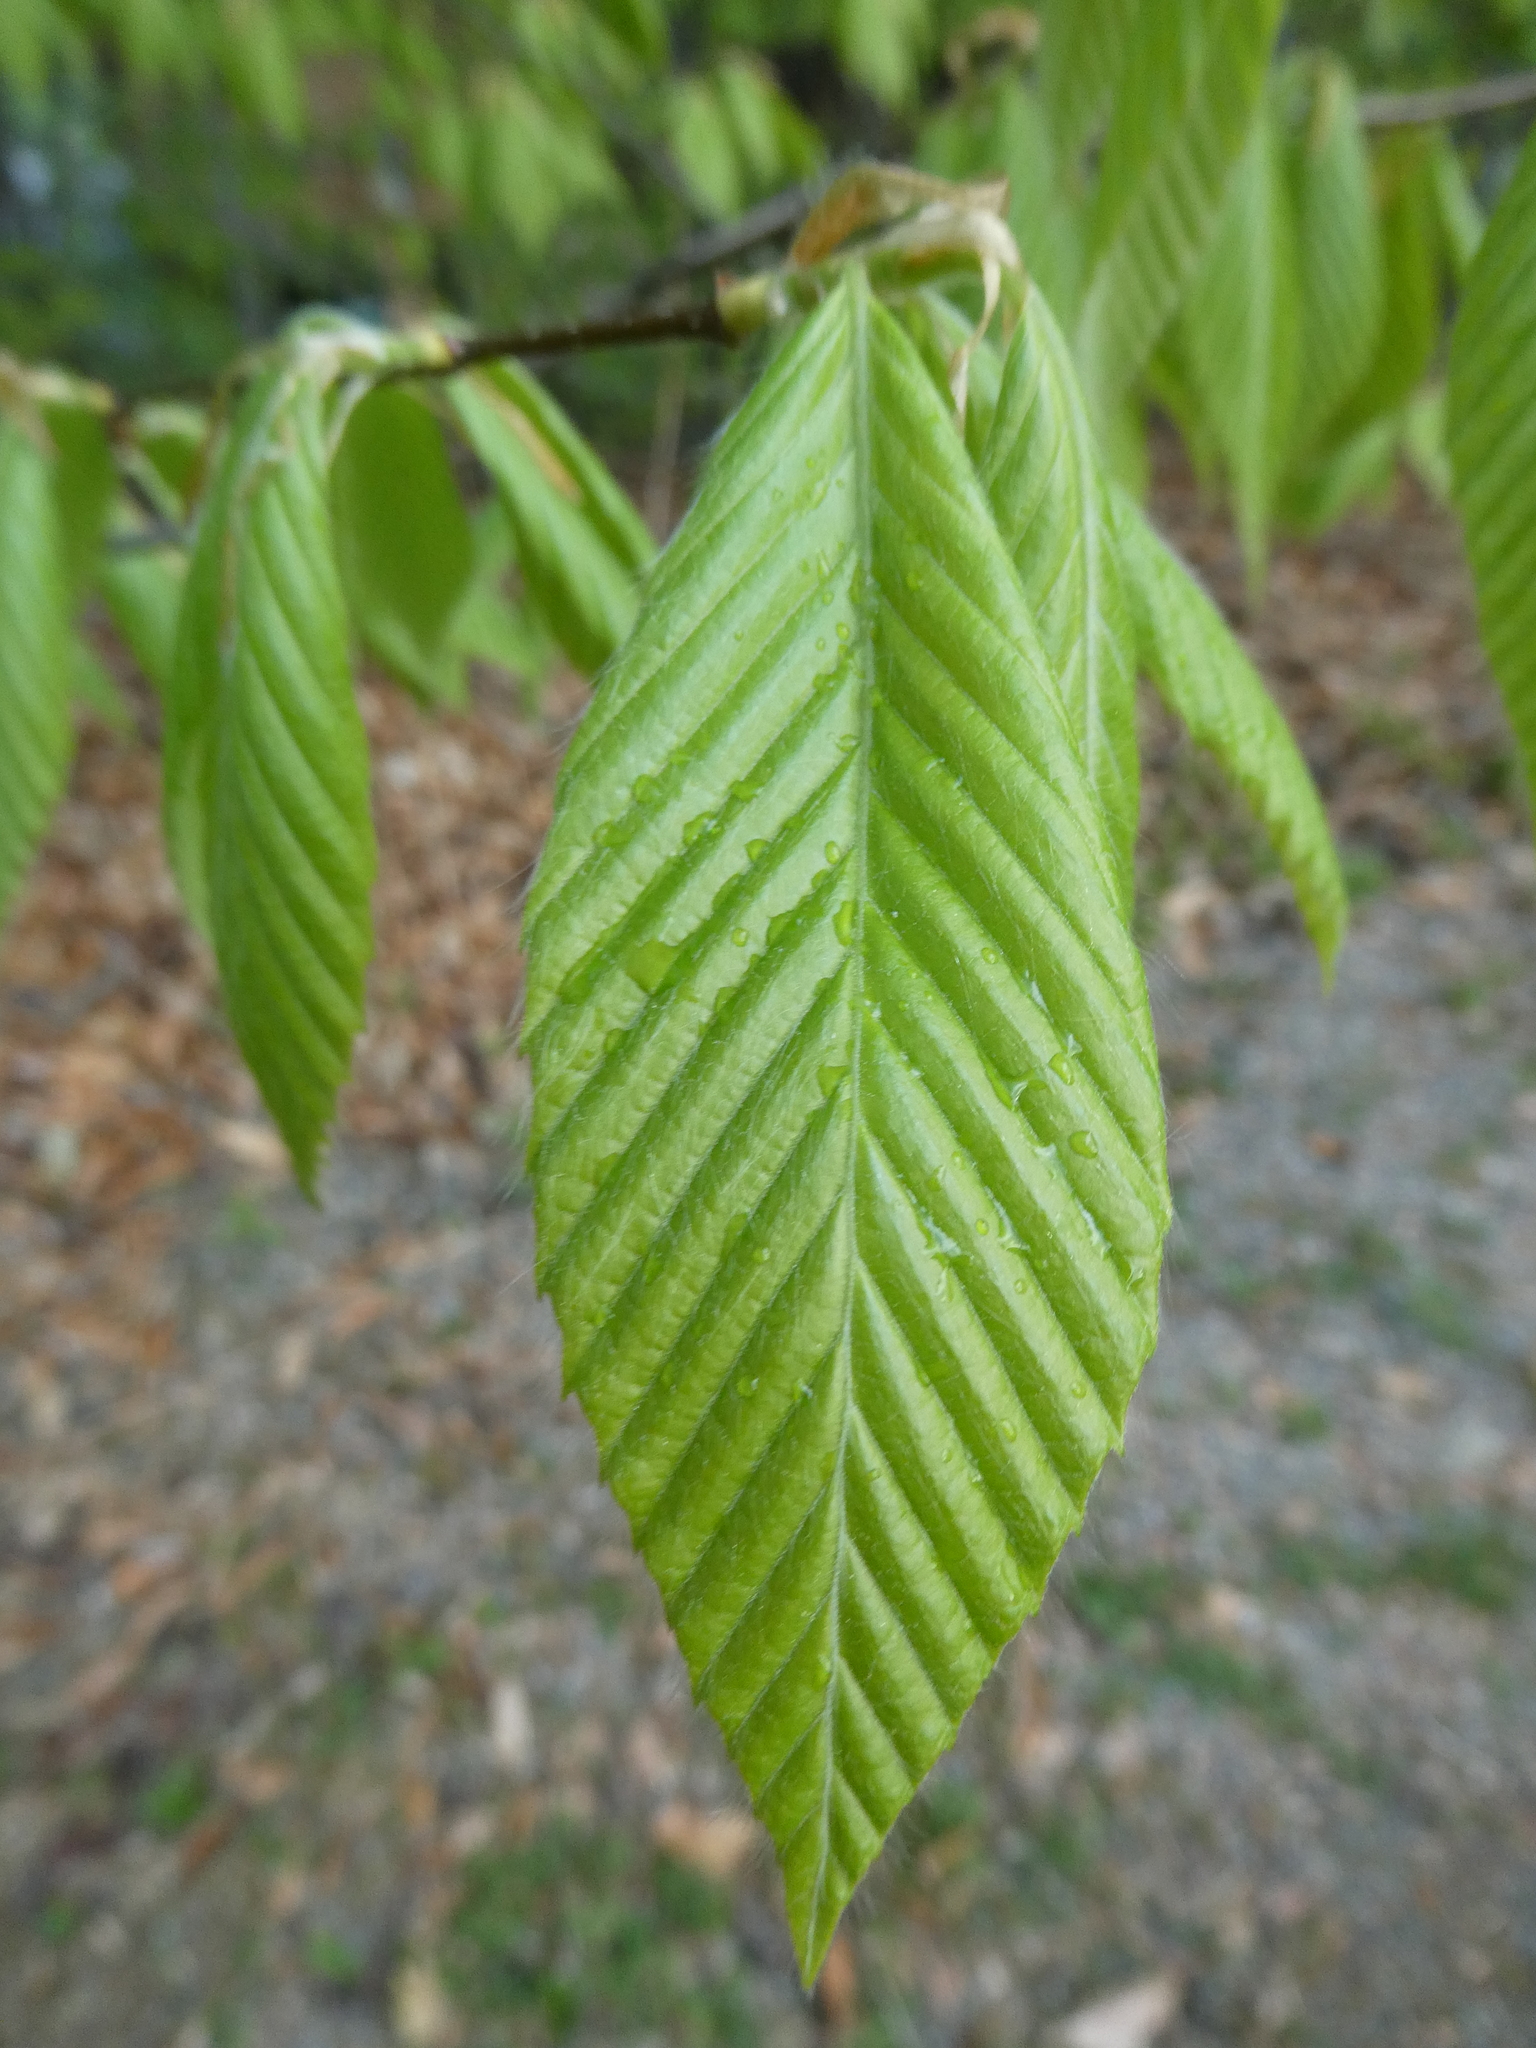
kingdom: Plantae
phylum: Tracheophyta
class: Magnoliopsida
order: Fagales
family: Fagaceae
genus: Fagus
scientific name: Fagus grandifolia
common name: American beech
